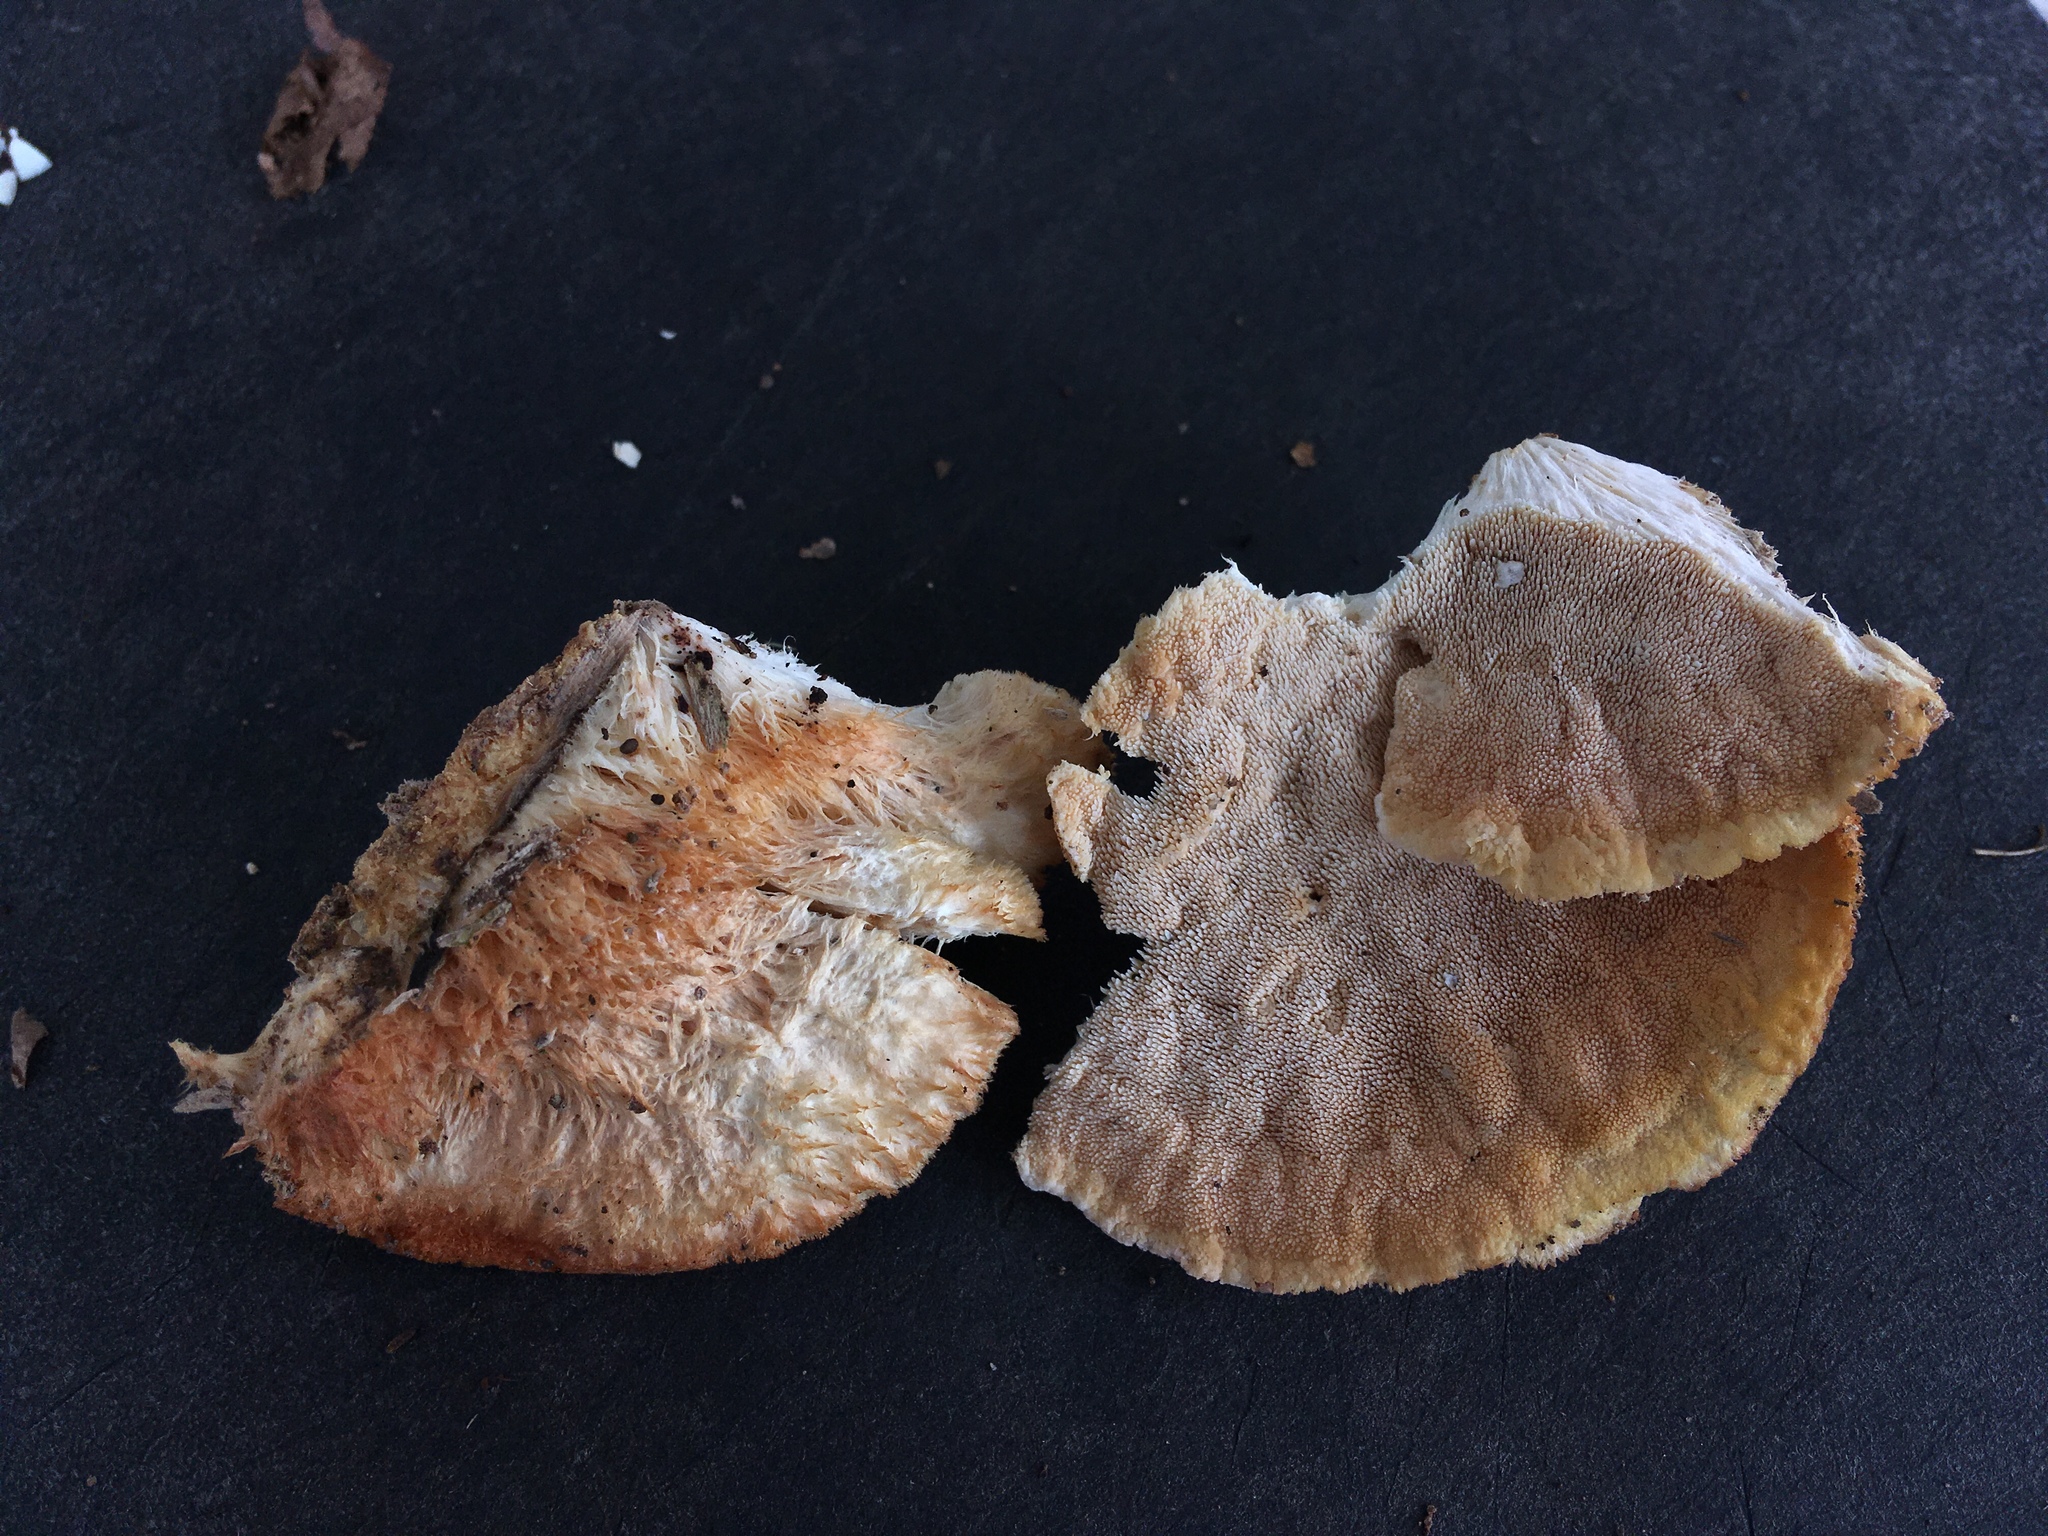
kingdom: Fungi
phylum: Basidiomycota
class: Agaricomycetes
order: Polyporales
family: Meruliaceae
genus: Donkia
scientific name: Donkia pulcherrima
